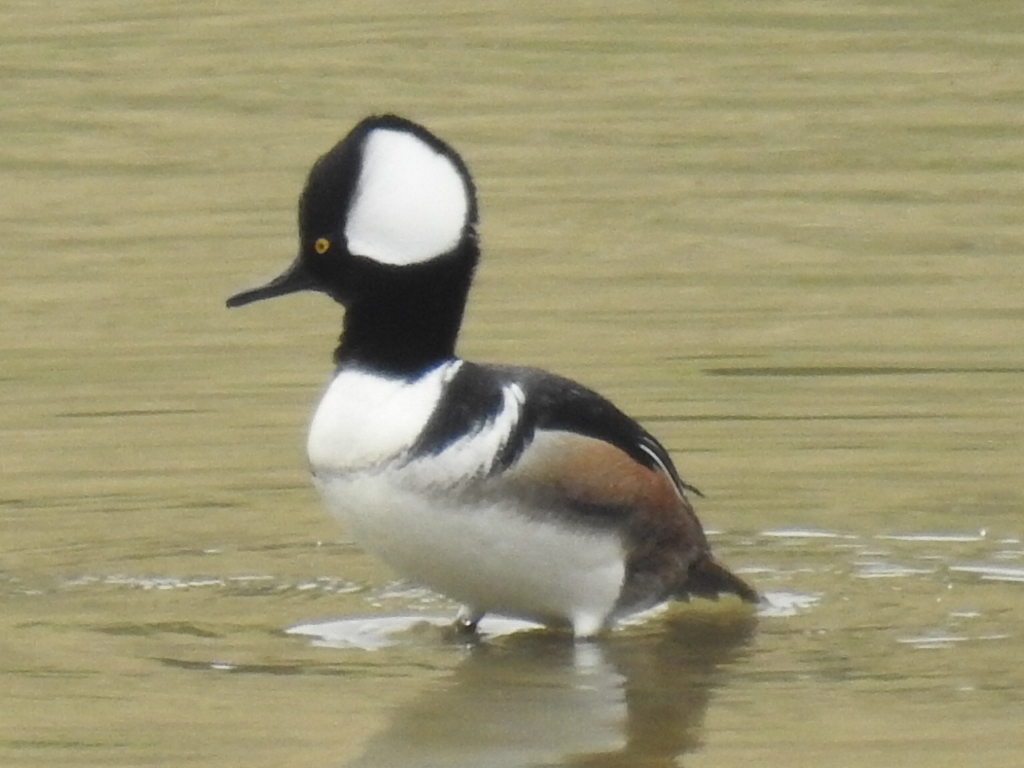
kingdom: Animalia
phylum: Chordata
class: Aves
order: Anseriformes
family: Anatidae
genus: Lophodytes
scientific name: Lophodytes cucullatus
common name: Hooded merganser
